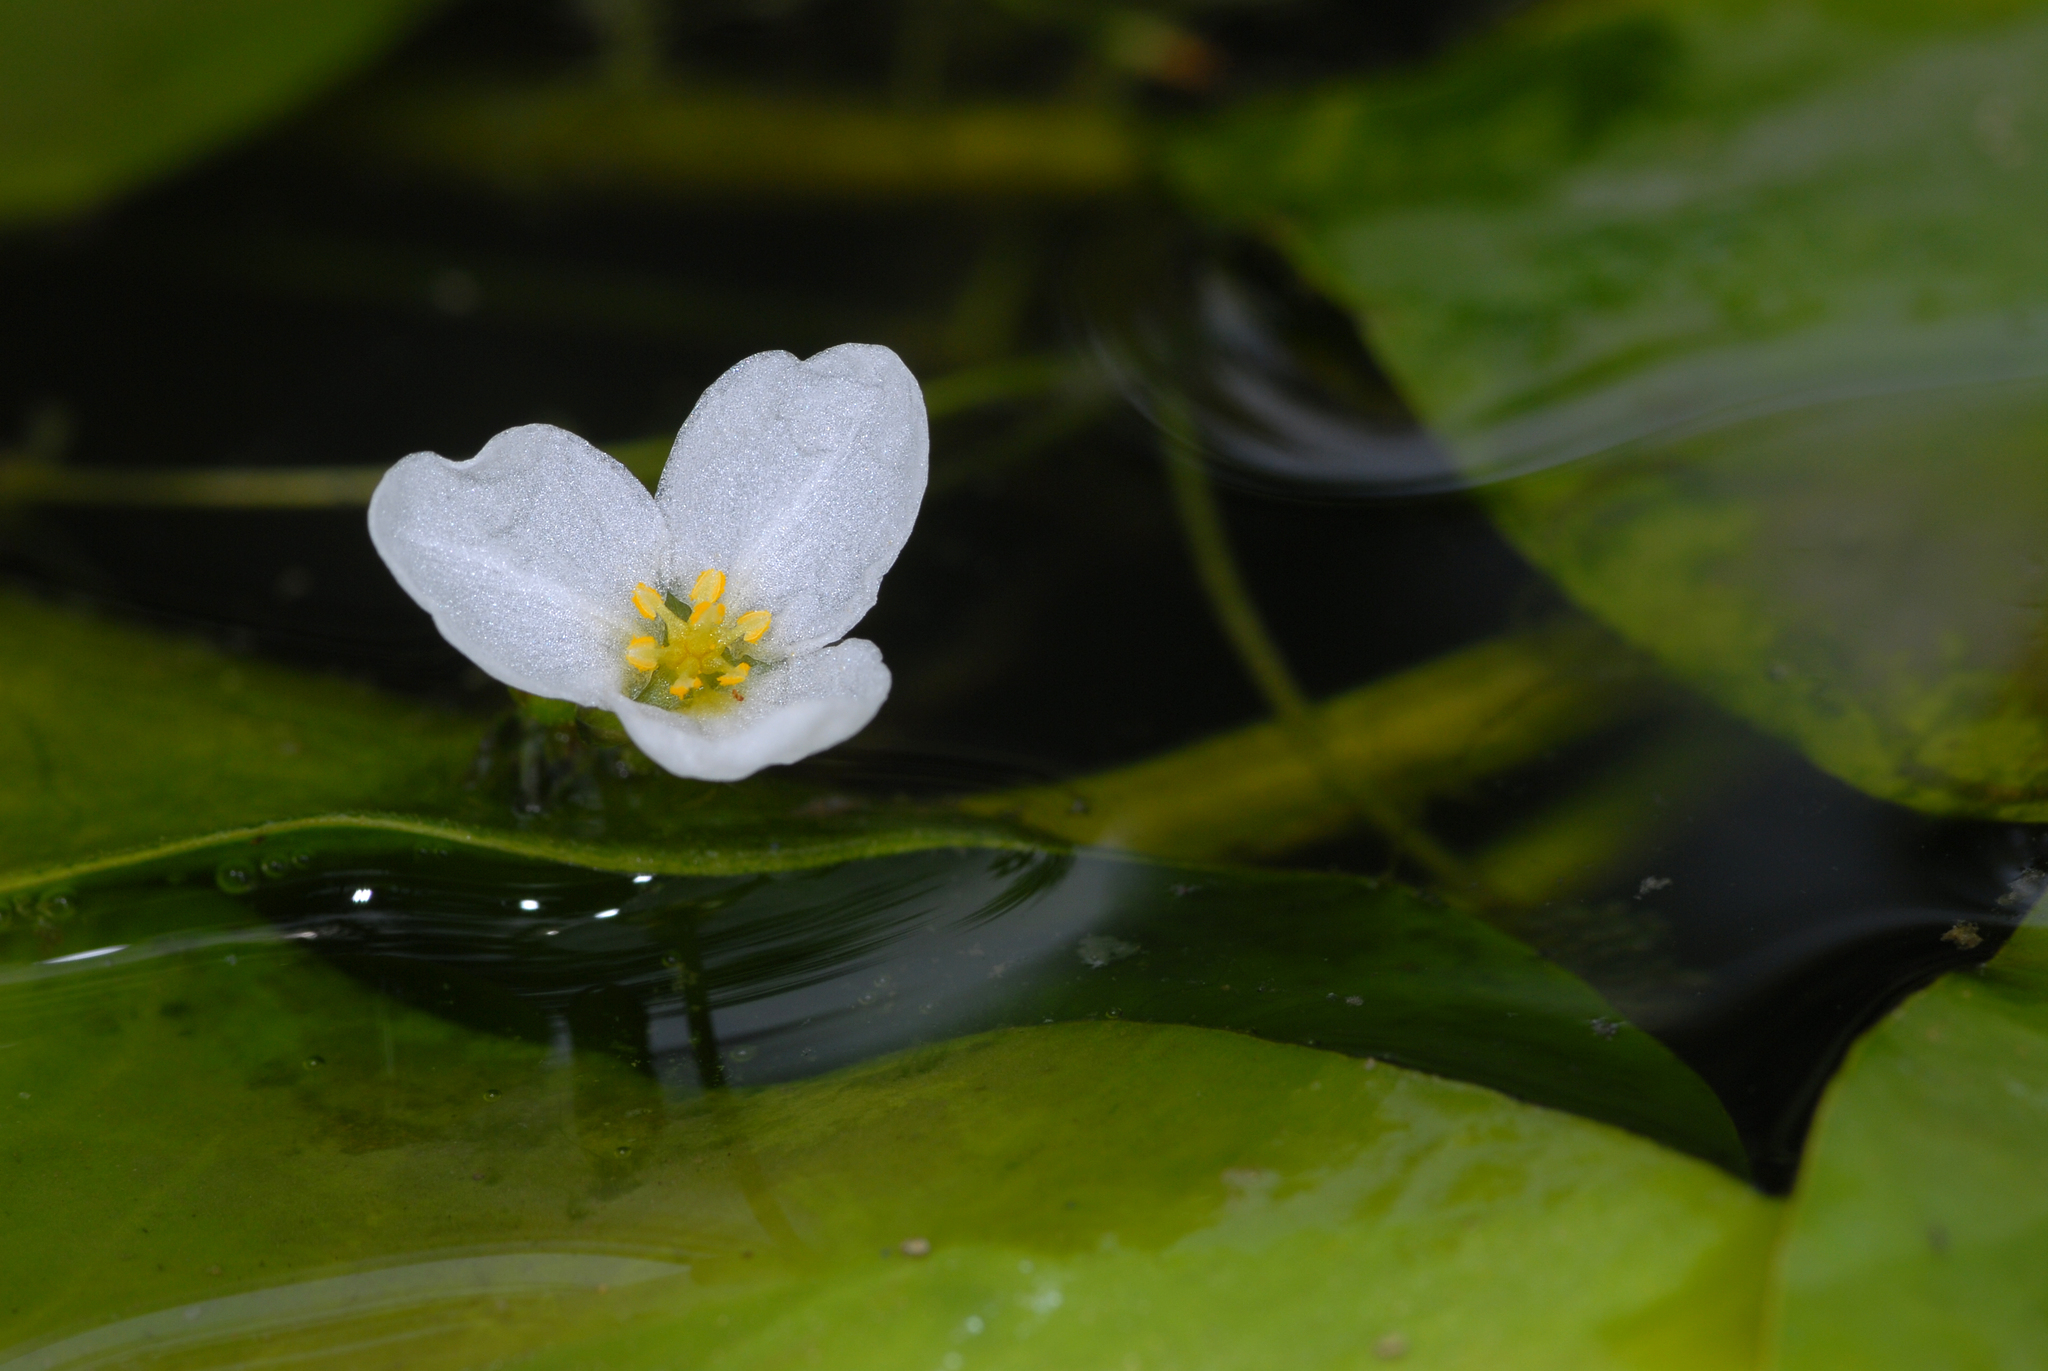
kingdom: Plantae
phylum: Tracheophyta
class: Liliopsida
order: Alismatales
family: Hydrocharitaceae
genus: Elodea
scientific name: Elodea densa
